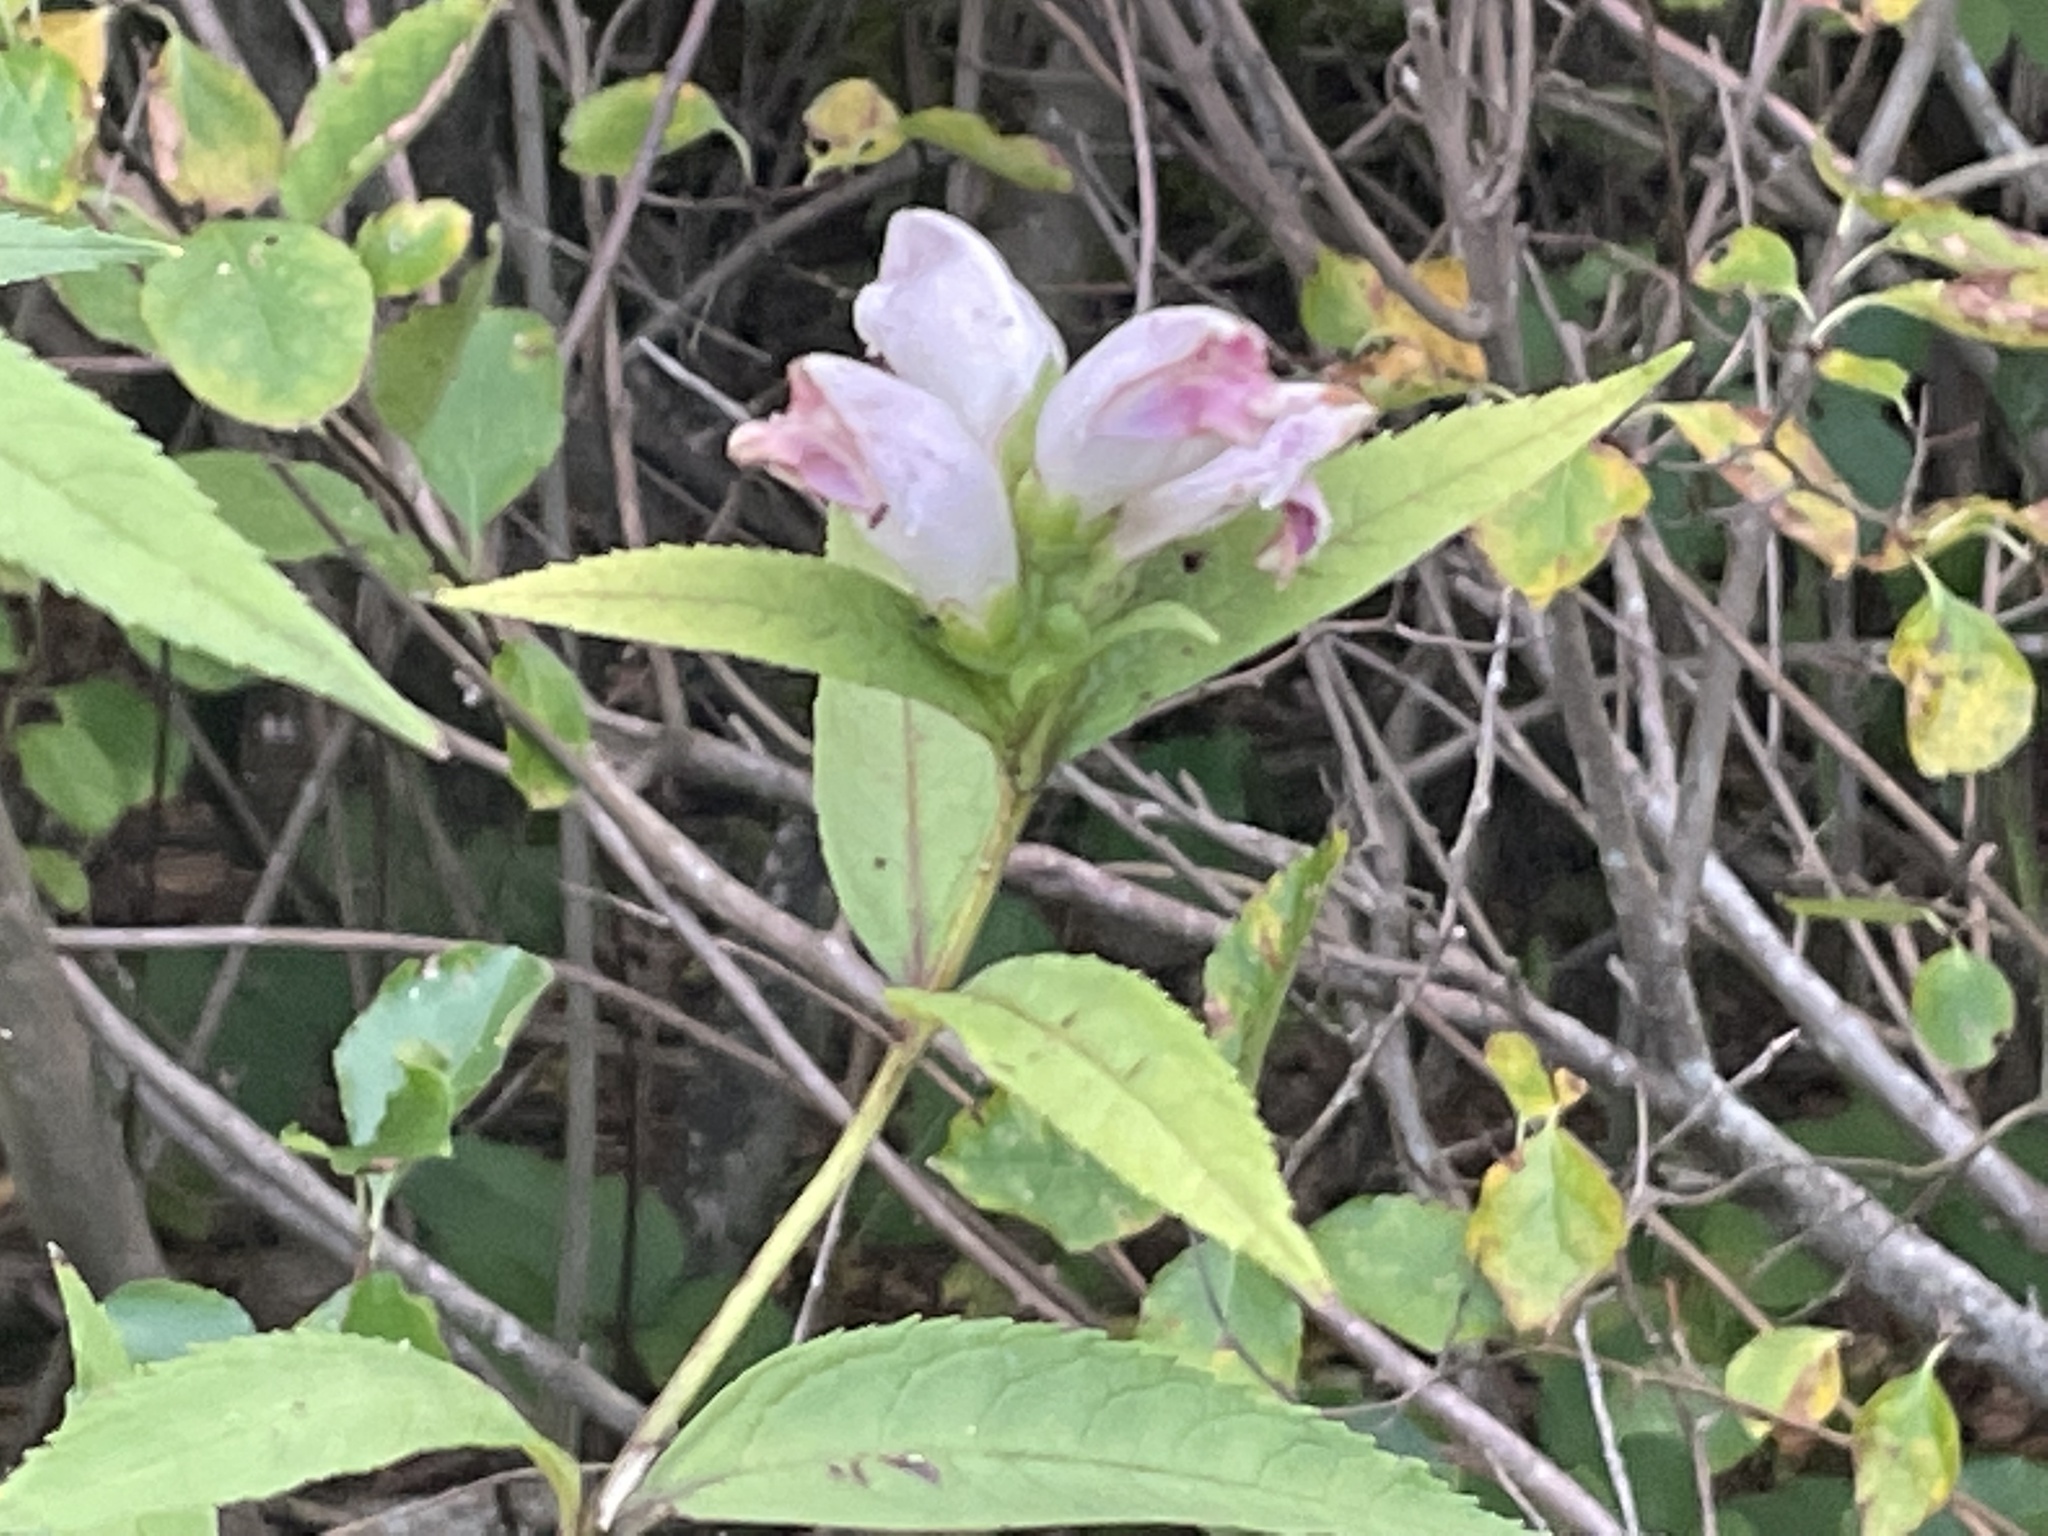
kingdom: Plantae
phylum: Tracheophyta
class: Magnoliopsida
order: Lamiales
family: Plantaginaceae
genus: Chelone
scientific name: Chelone glabra
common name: Snakehead
